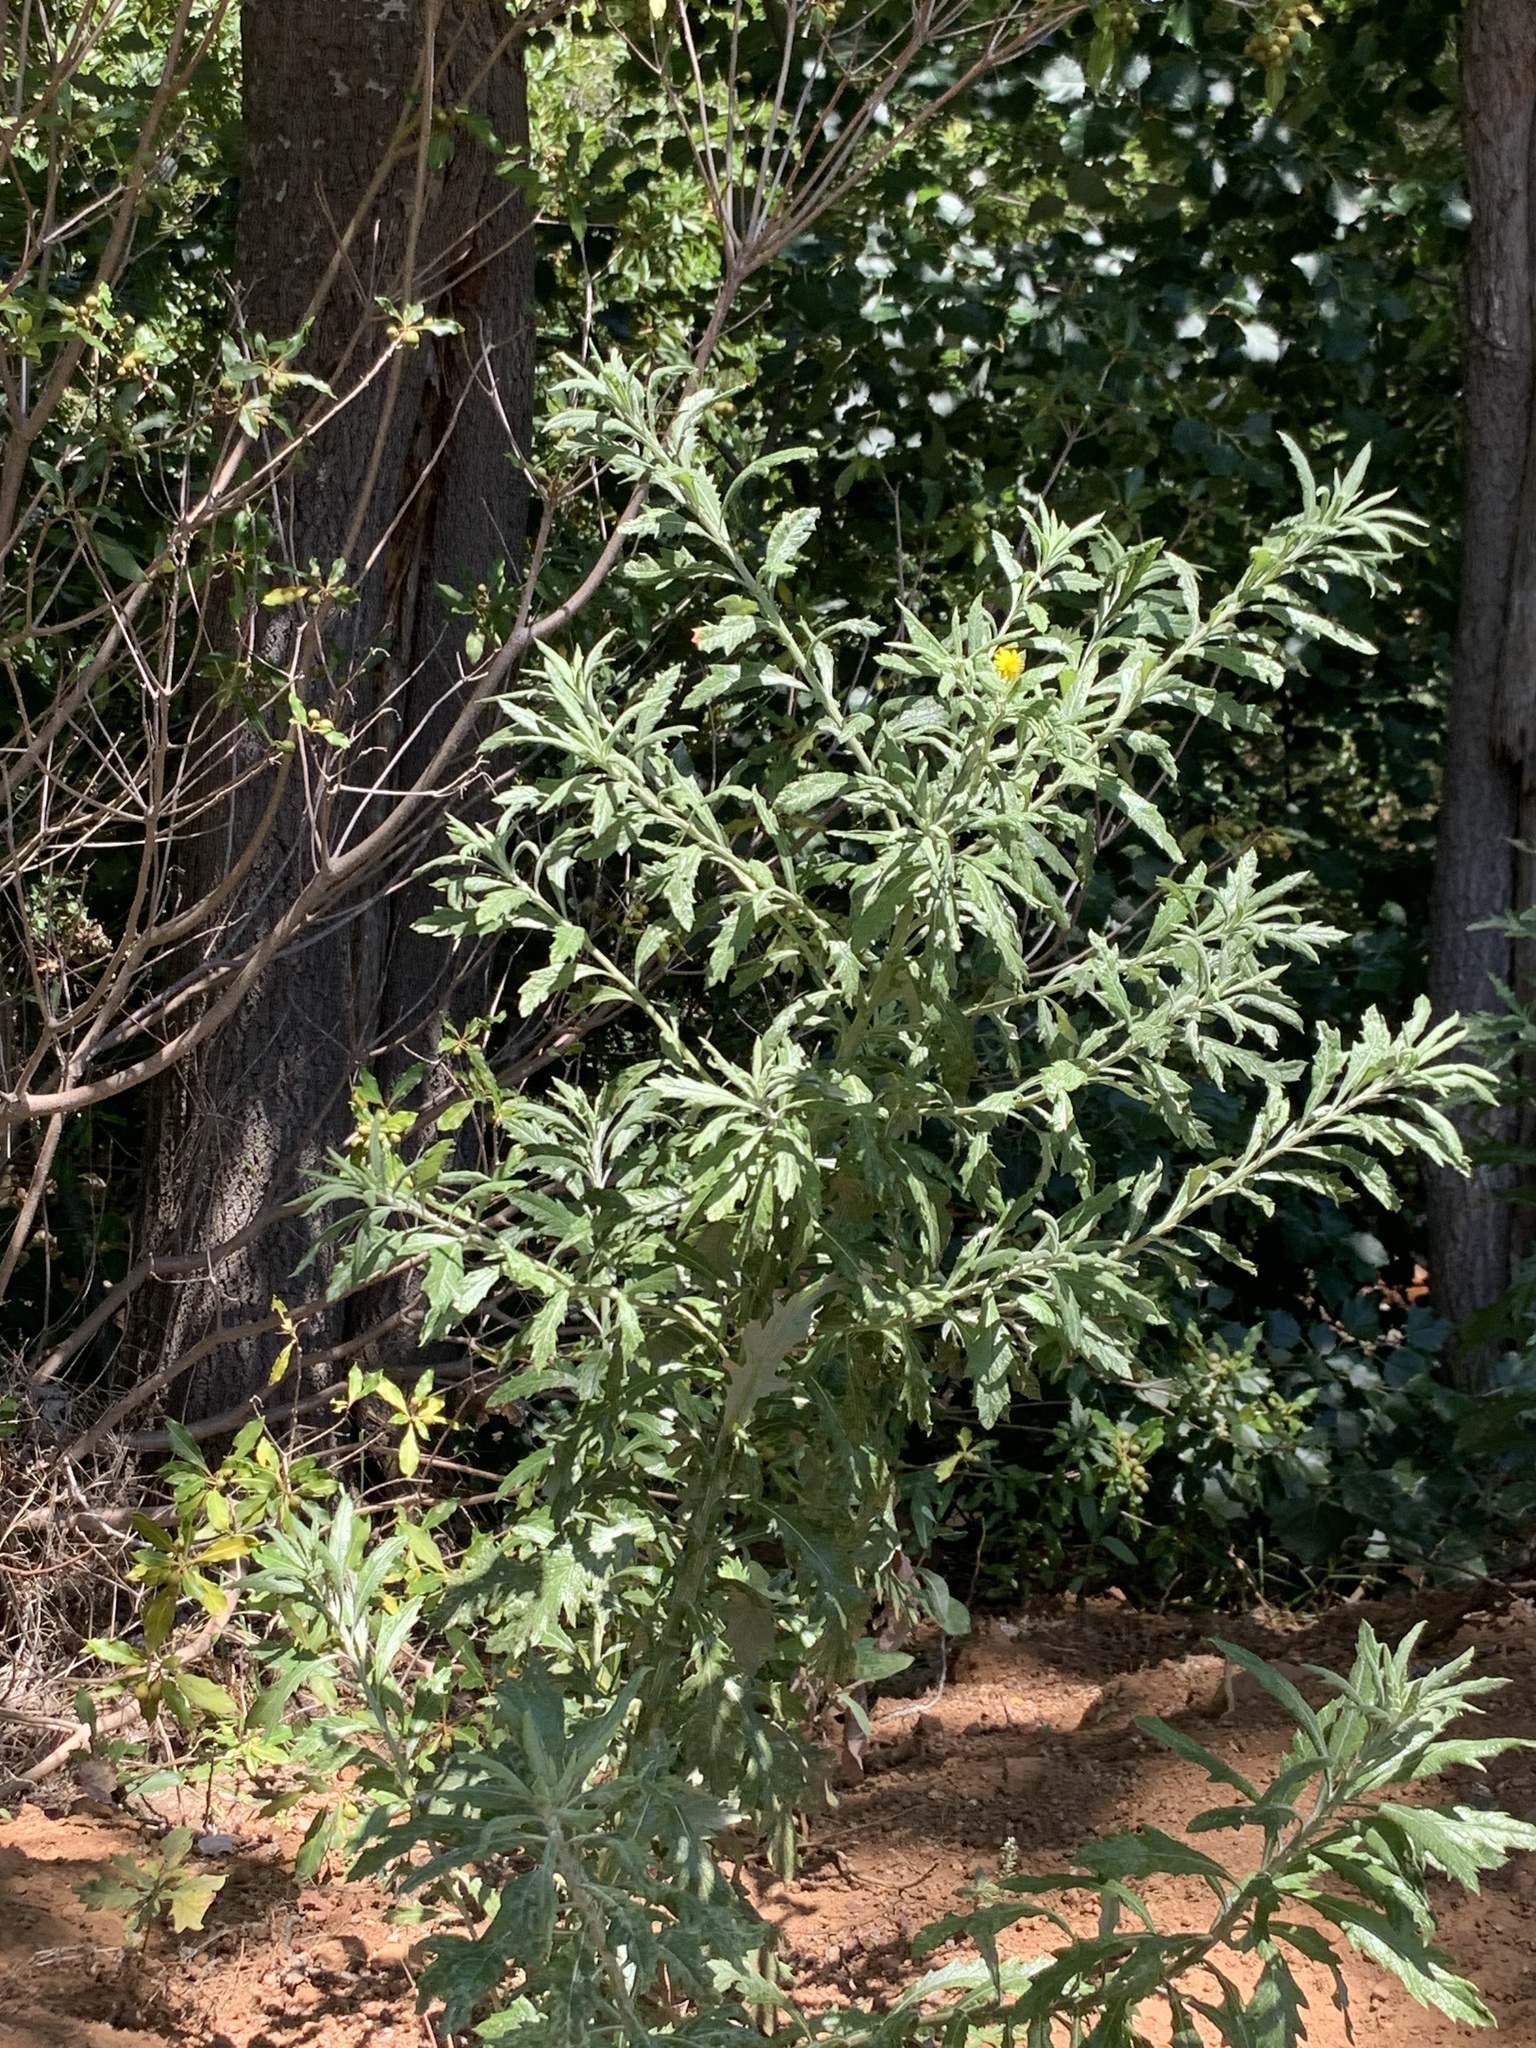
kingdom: Plantae
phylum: Tracheophyta
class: Magnoliopsida
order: Asterales
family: Asteraceae
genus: Senecio
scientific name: Senecio pterophorus
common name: Shoddy ragwort
